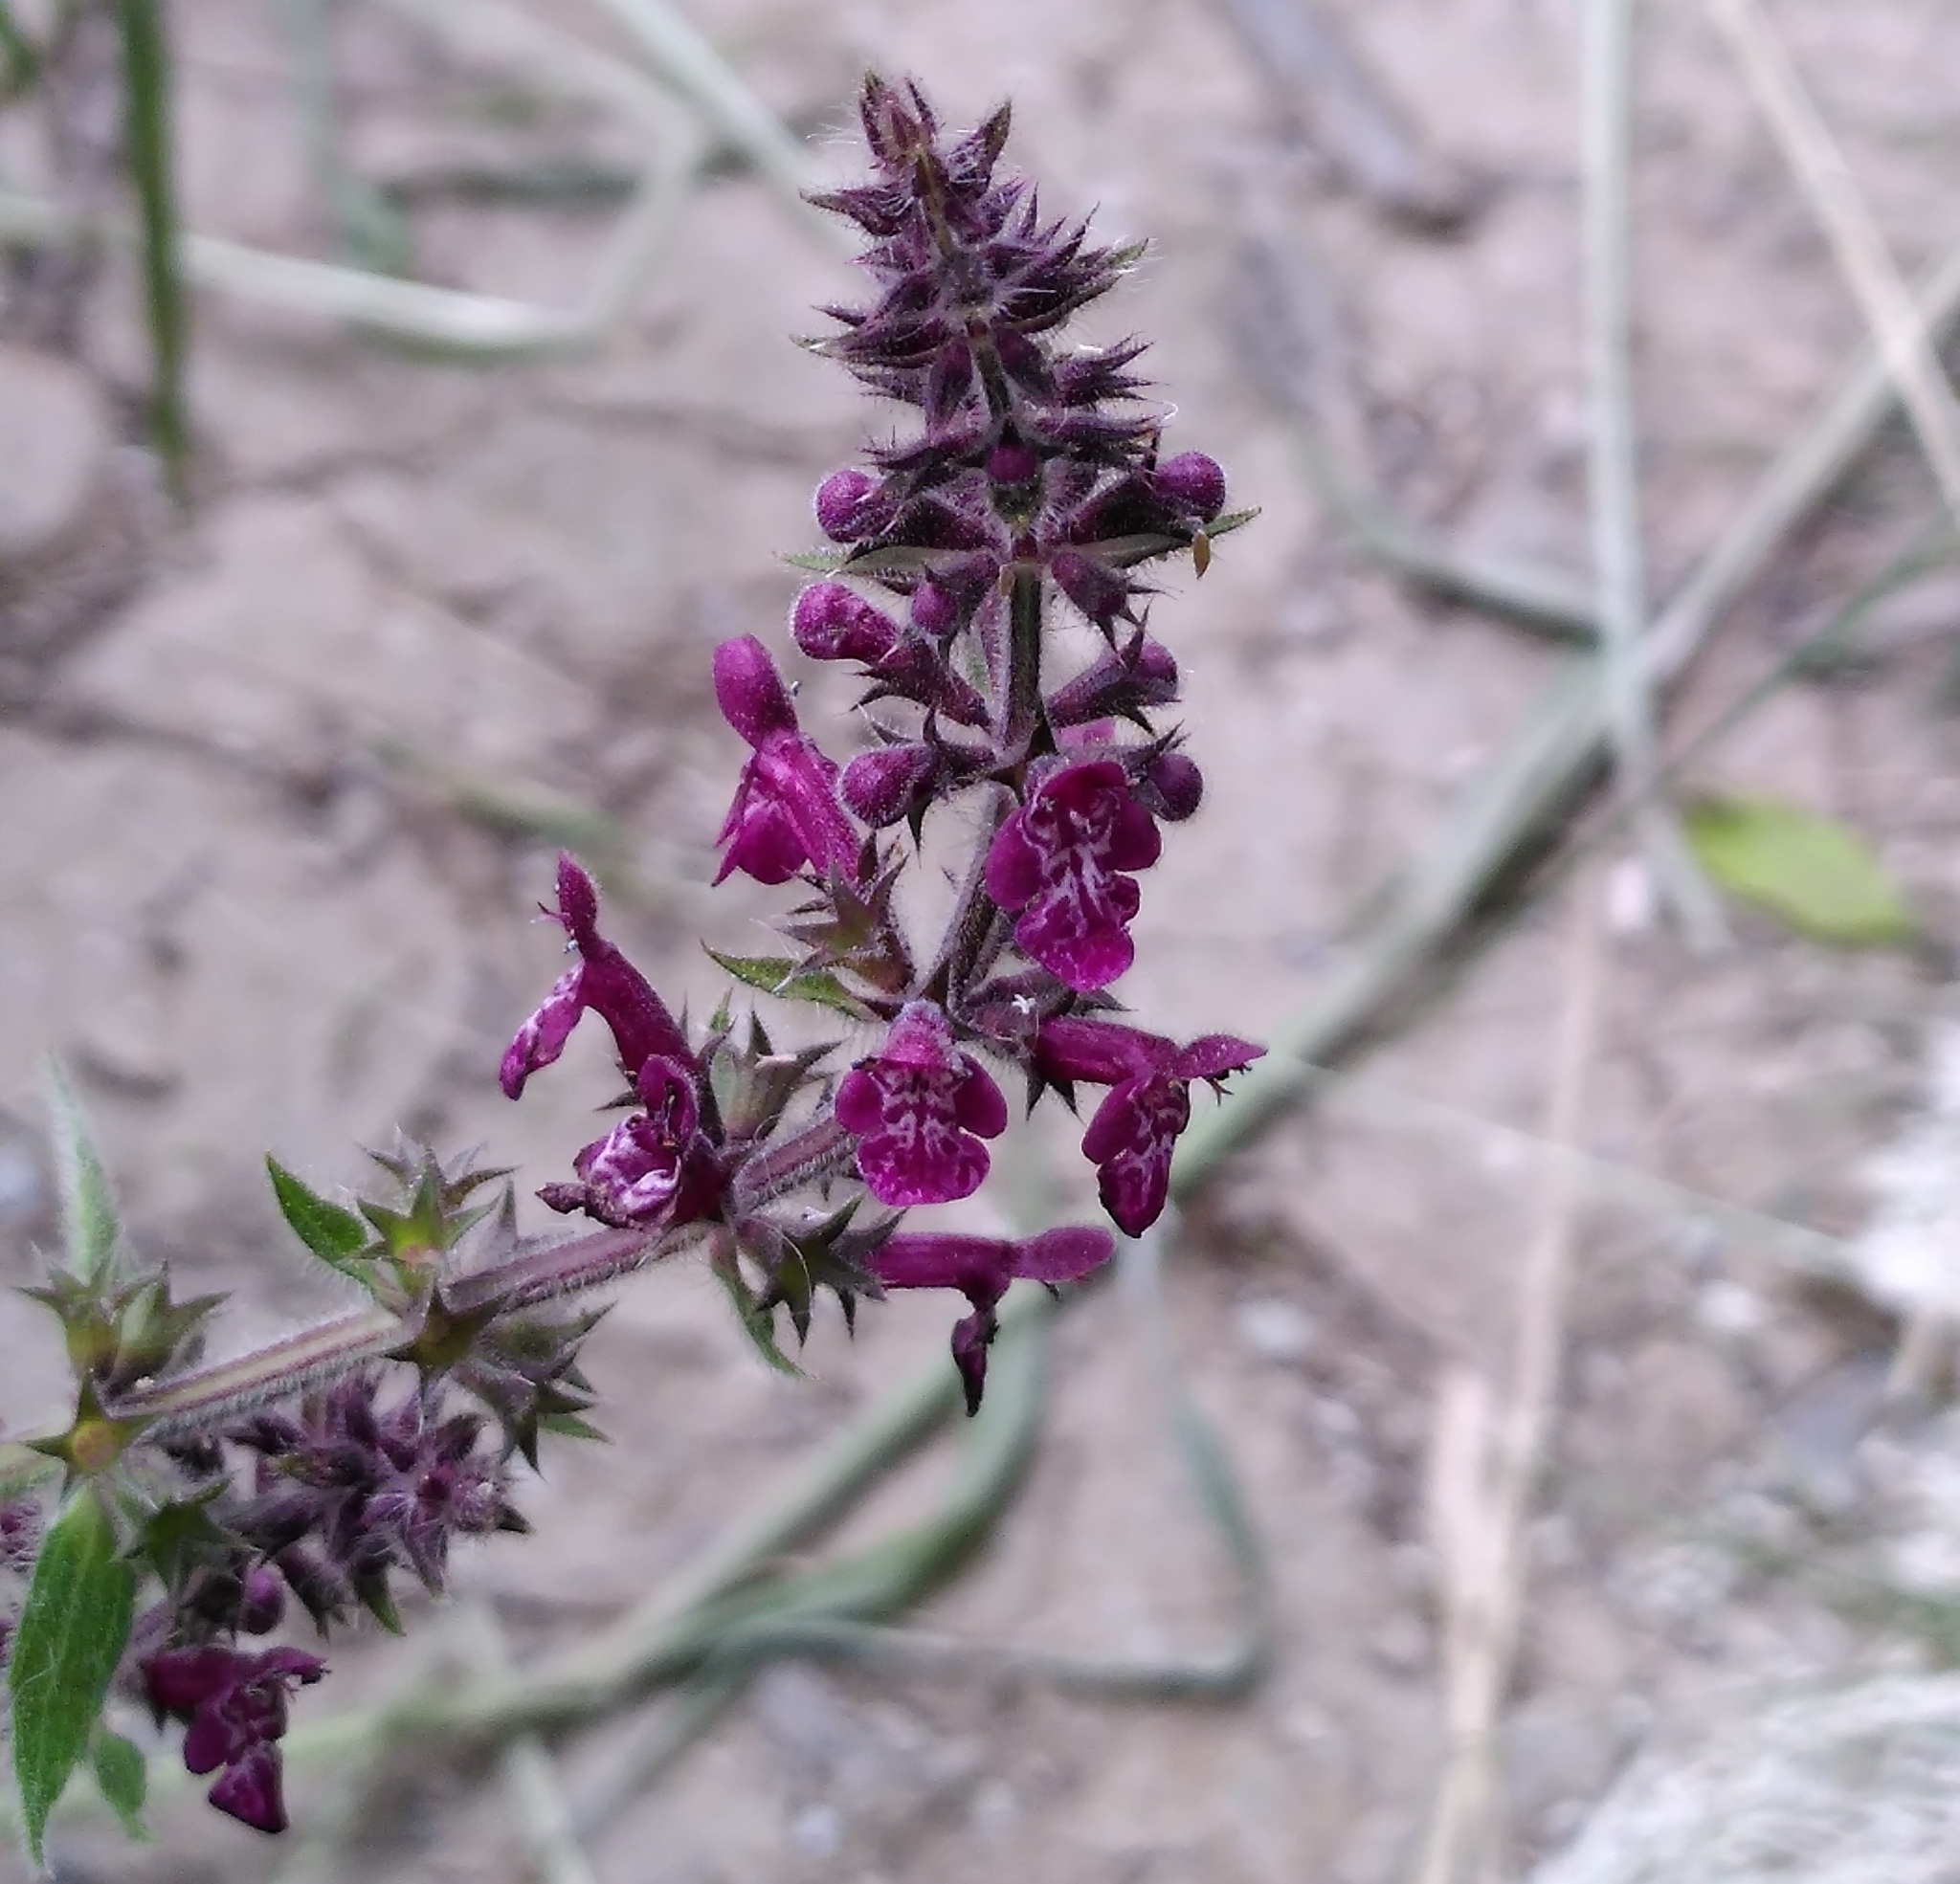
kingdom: Plantae
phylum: Tracheophyta
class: Magnoliopsida
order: Lamiales
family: Lamiaceae
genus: Stachys
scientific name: Stachys sylvatica
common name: Hedge woundwort
